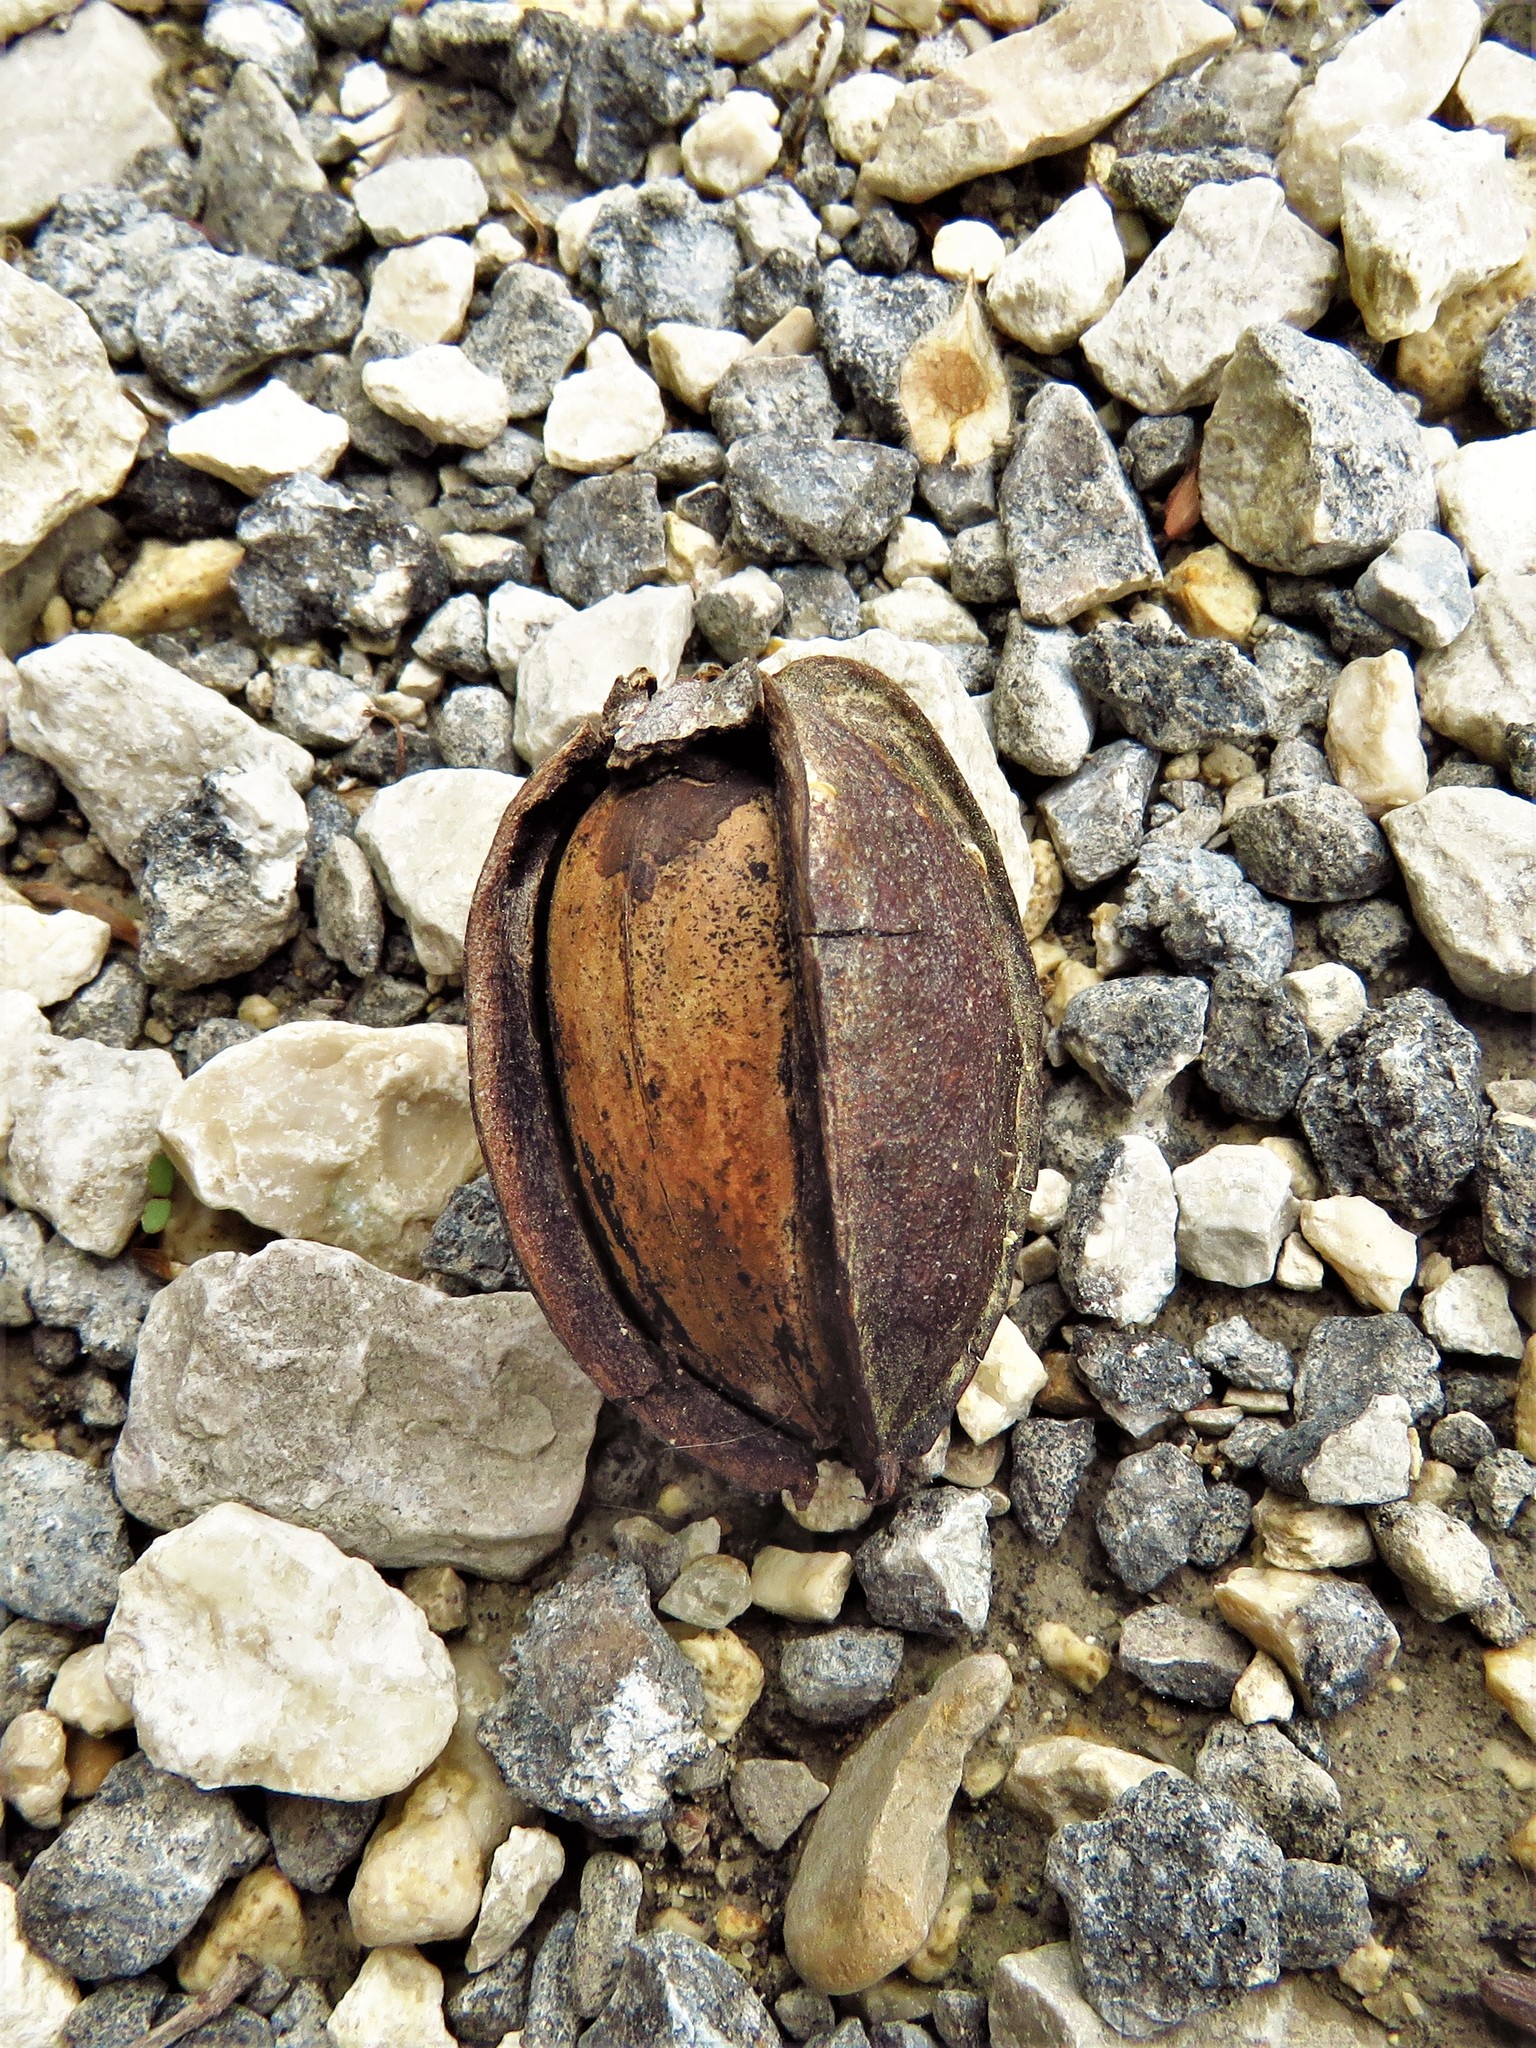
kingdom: Plantae
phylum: Tracheophyta
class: Magnoliopsida
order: Fagales
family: Juglandaceae
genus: Carya
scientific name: Carya illinoinensis
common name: Pecan
